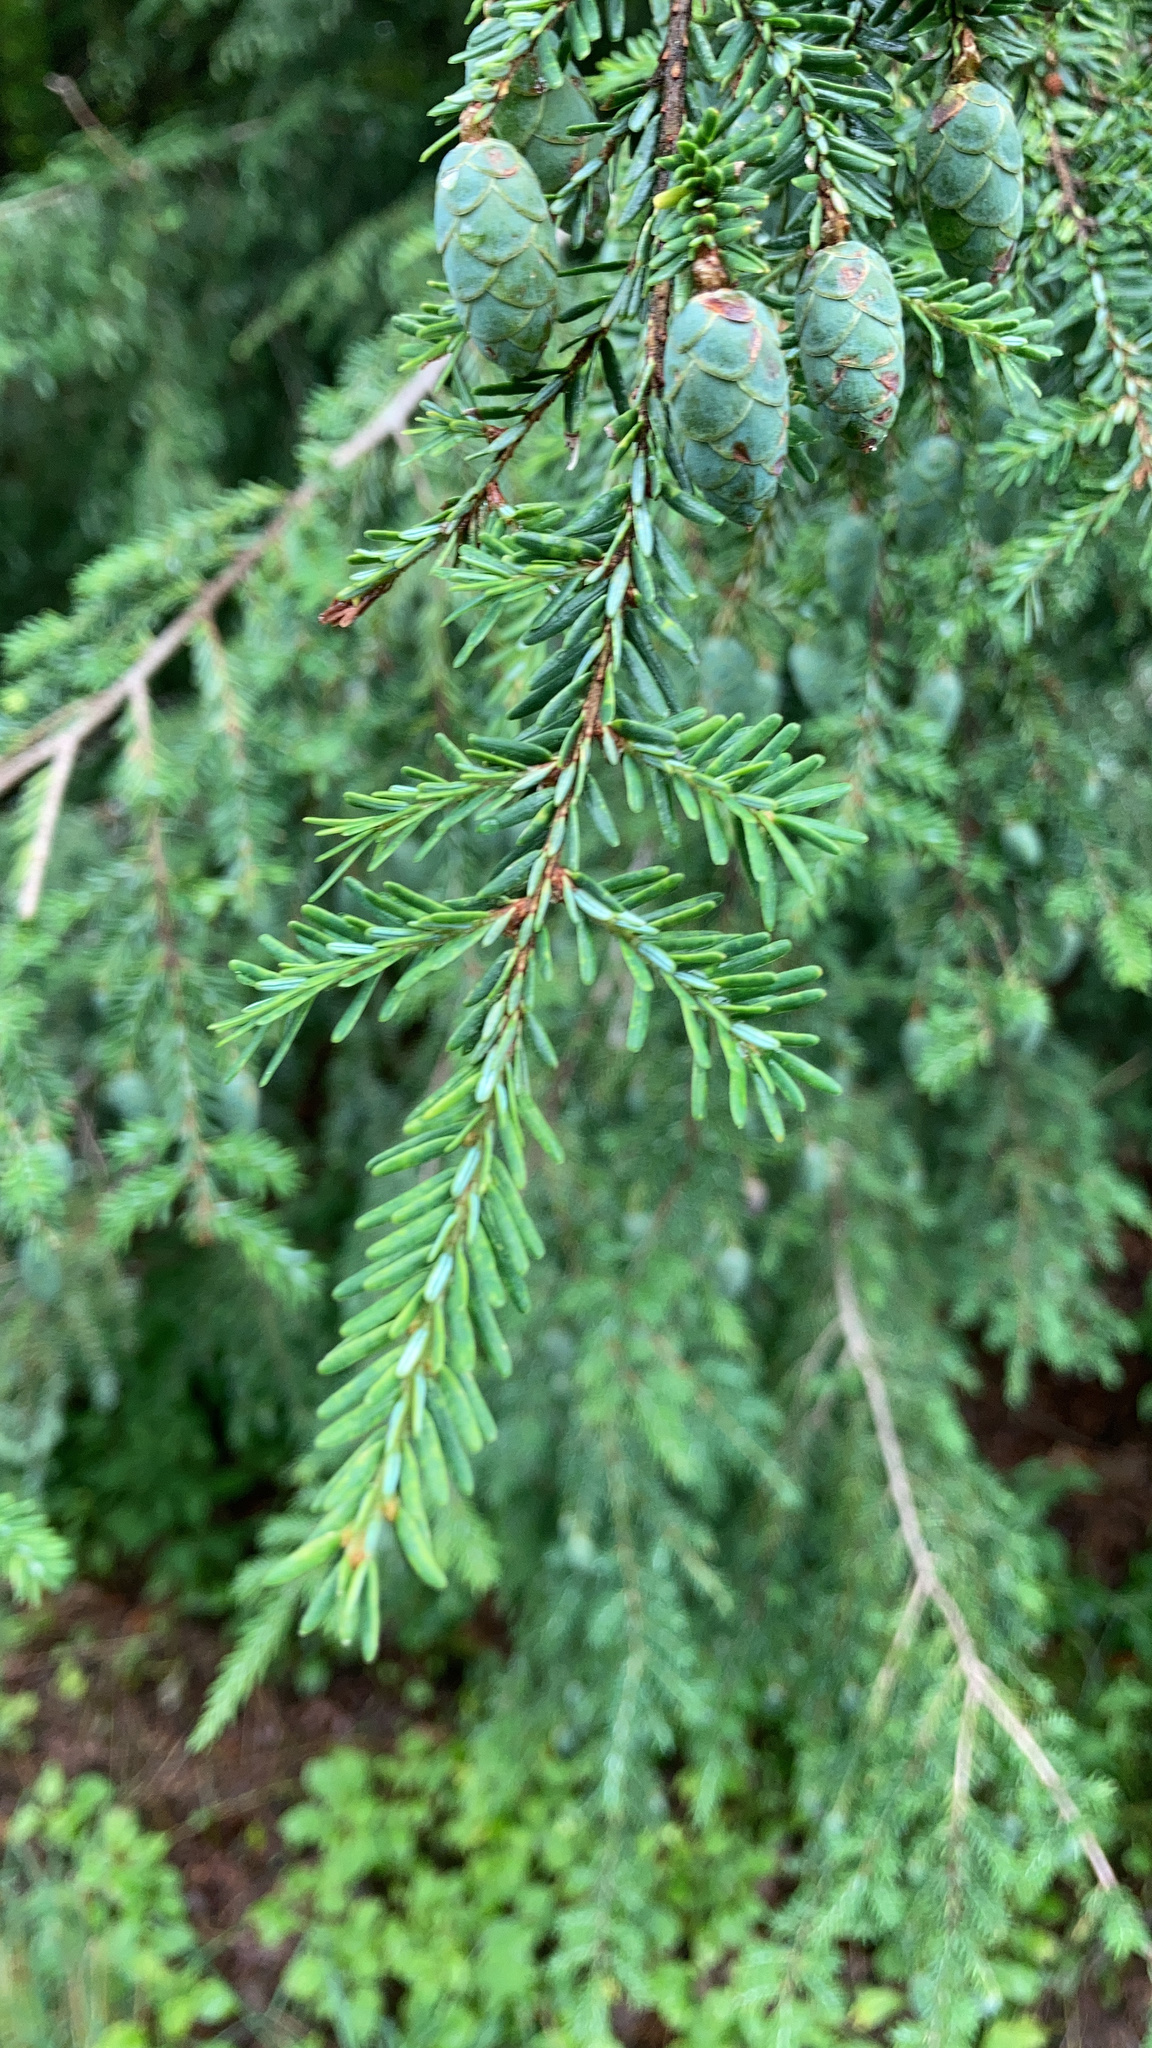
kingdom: Plantae
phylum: Tracheophyta
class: Pinopsida
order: Pinales
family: Pinaceae
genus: Tsuga
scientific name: Tsuga canadensis
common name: Eastern hemlock
